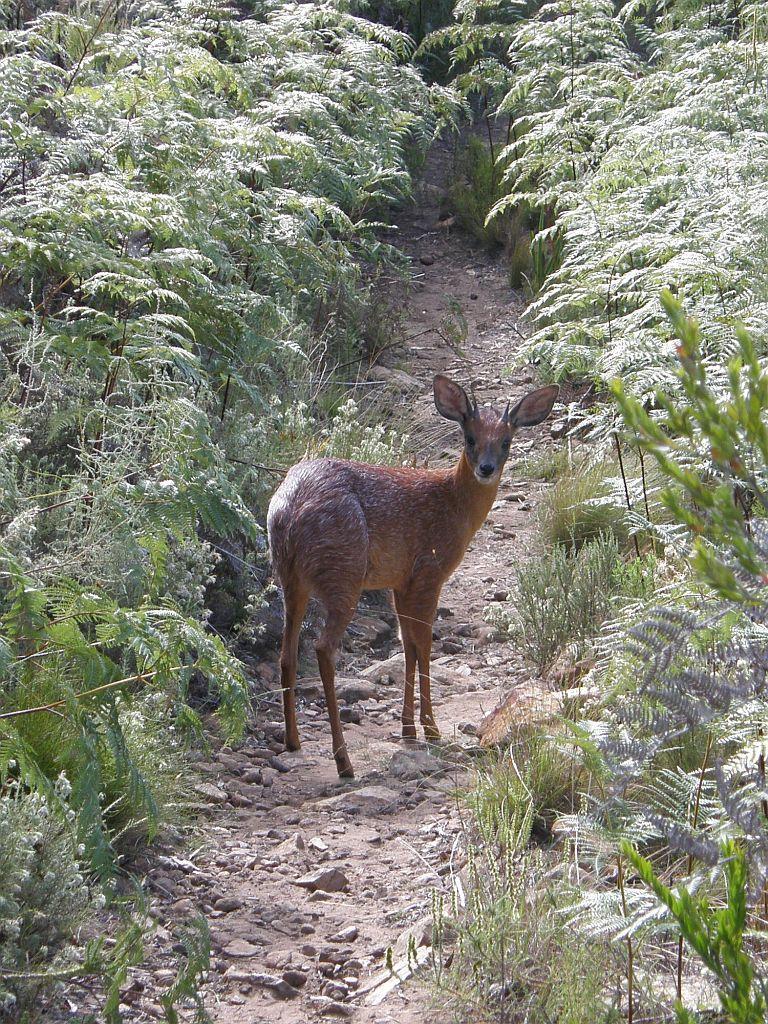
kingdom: Animalia
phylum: Chordata
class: Mammalia
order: Artiodactyla
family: Bovidae
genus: Raphicerus
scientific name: Raphicerus melanotis
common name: Cape grysbok
